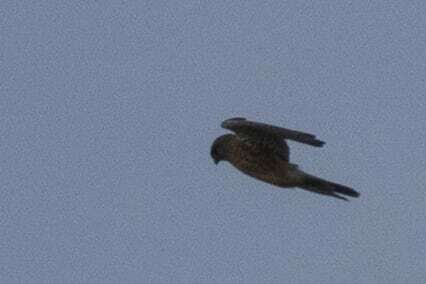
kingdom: Animalia
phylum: Chordata
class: Aves
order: Falconiformes
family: Falconidae
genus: Falco
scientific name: Falco tinnunculus
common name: Common kestrel
